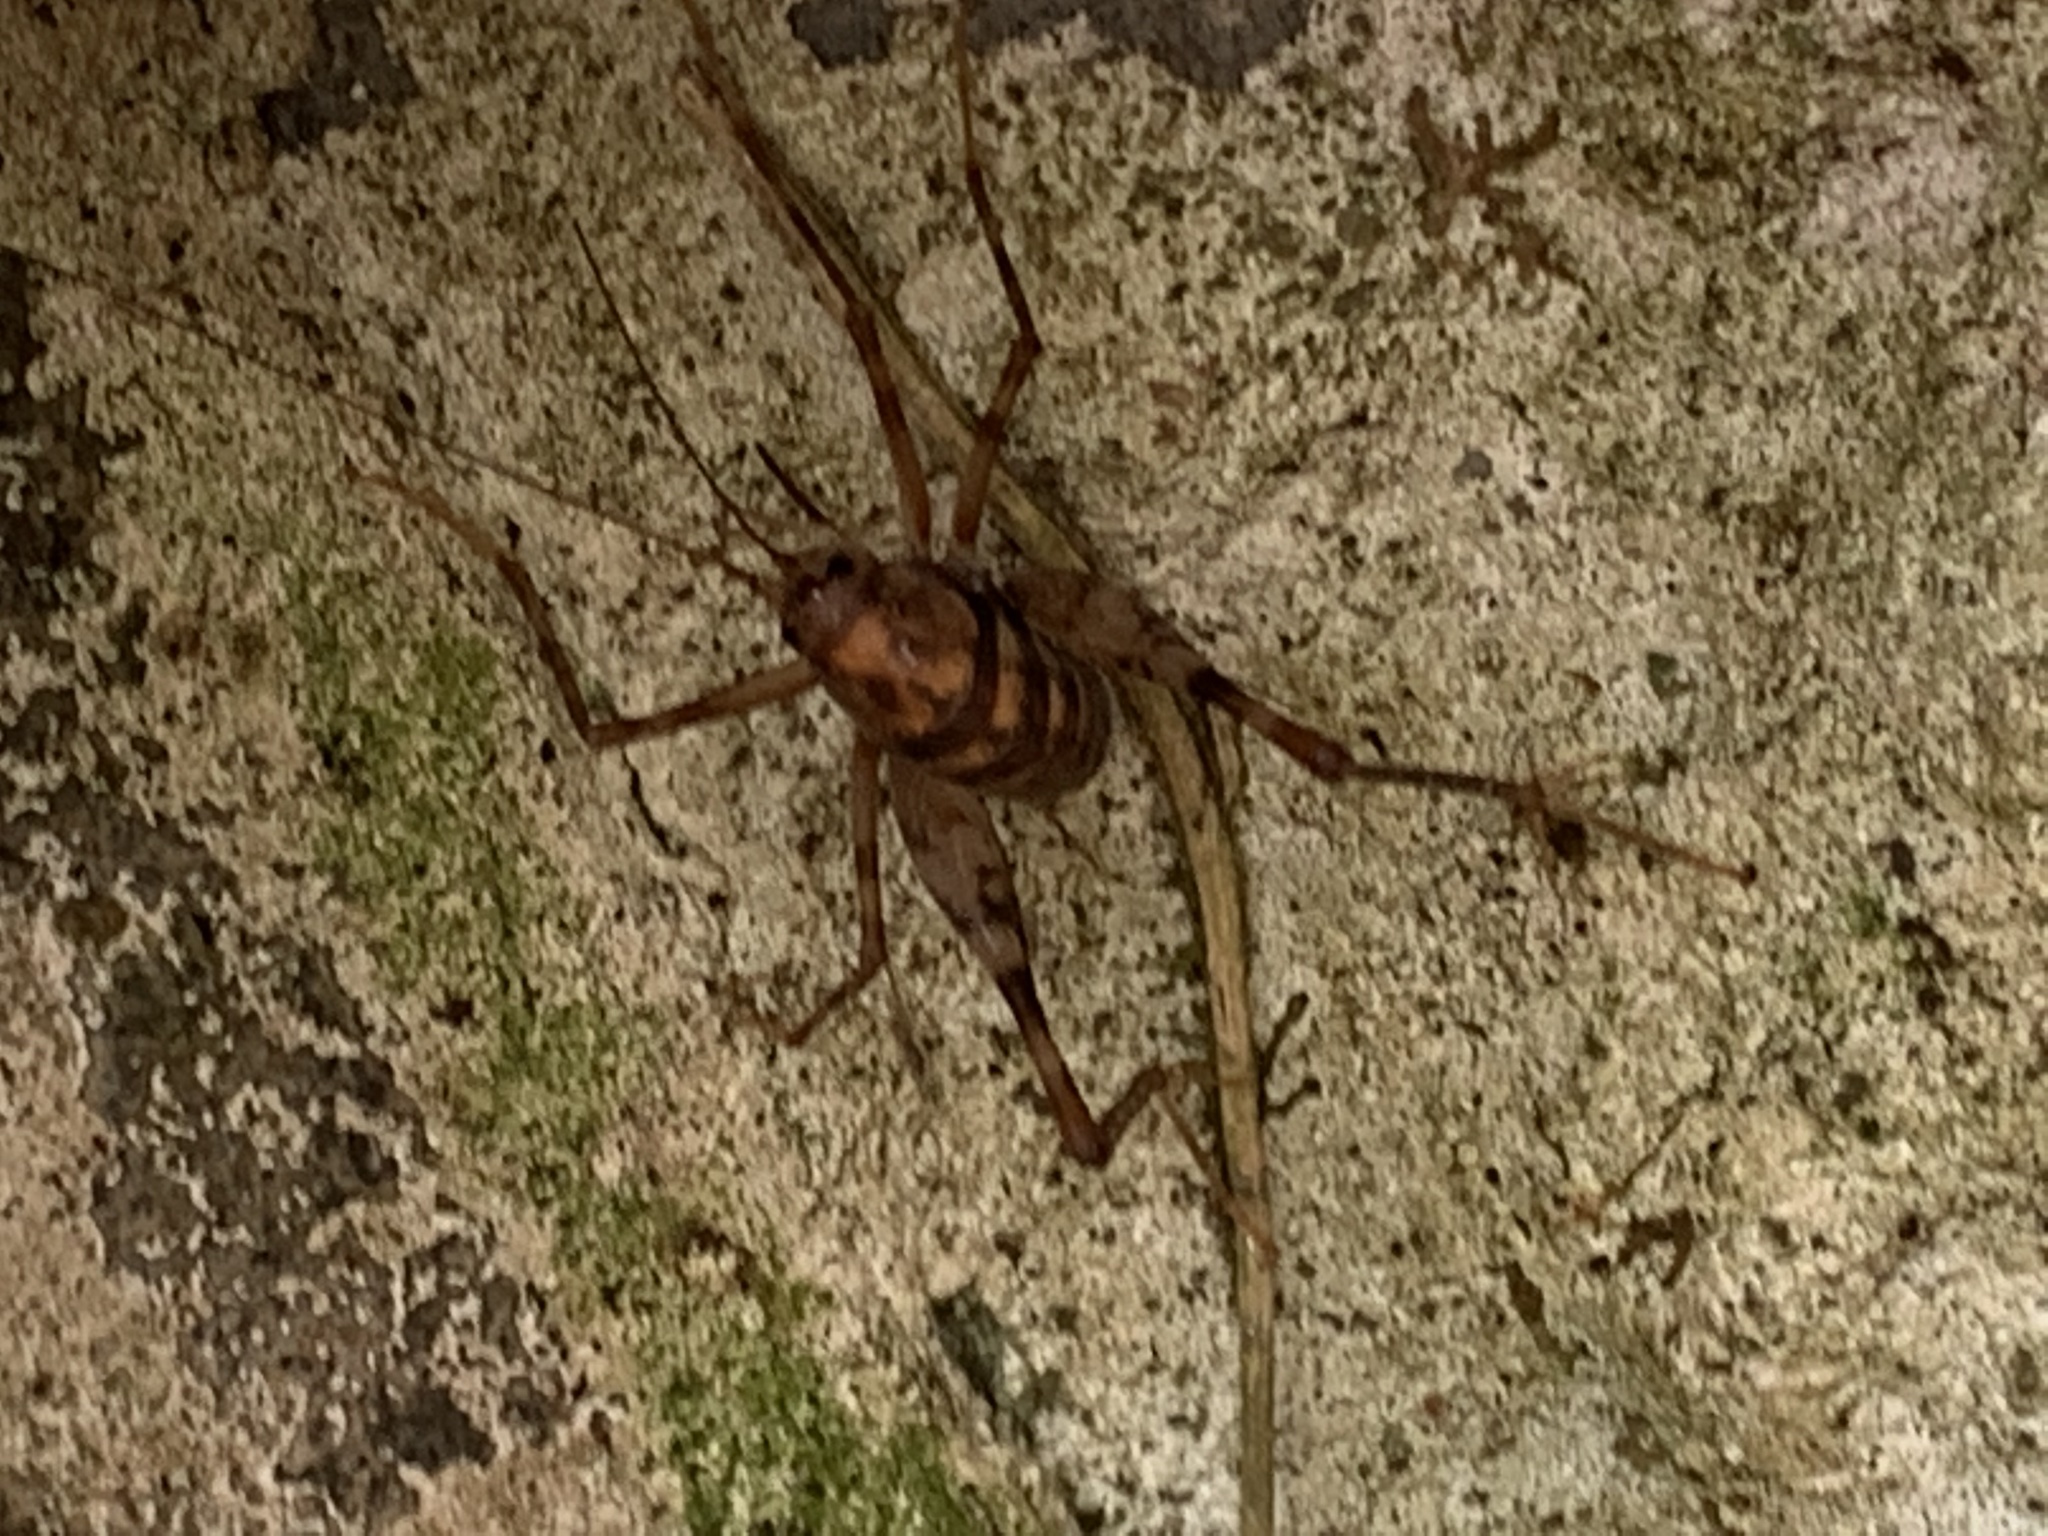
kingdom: Animalia
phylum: Arthropoda
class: Insecta
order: Orthoptera
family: Rhaphidophoridae
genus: Tachycines
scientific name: Tachycines asynamorus
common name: Greenhouse camel cricket
